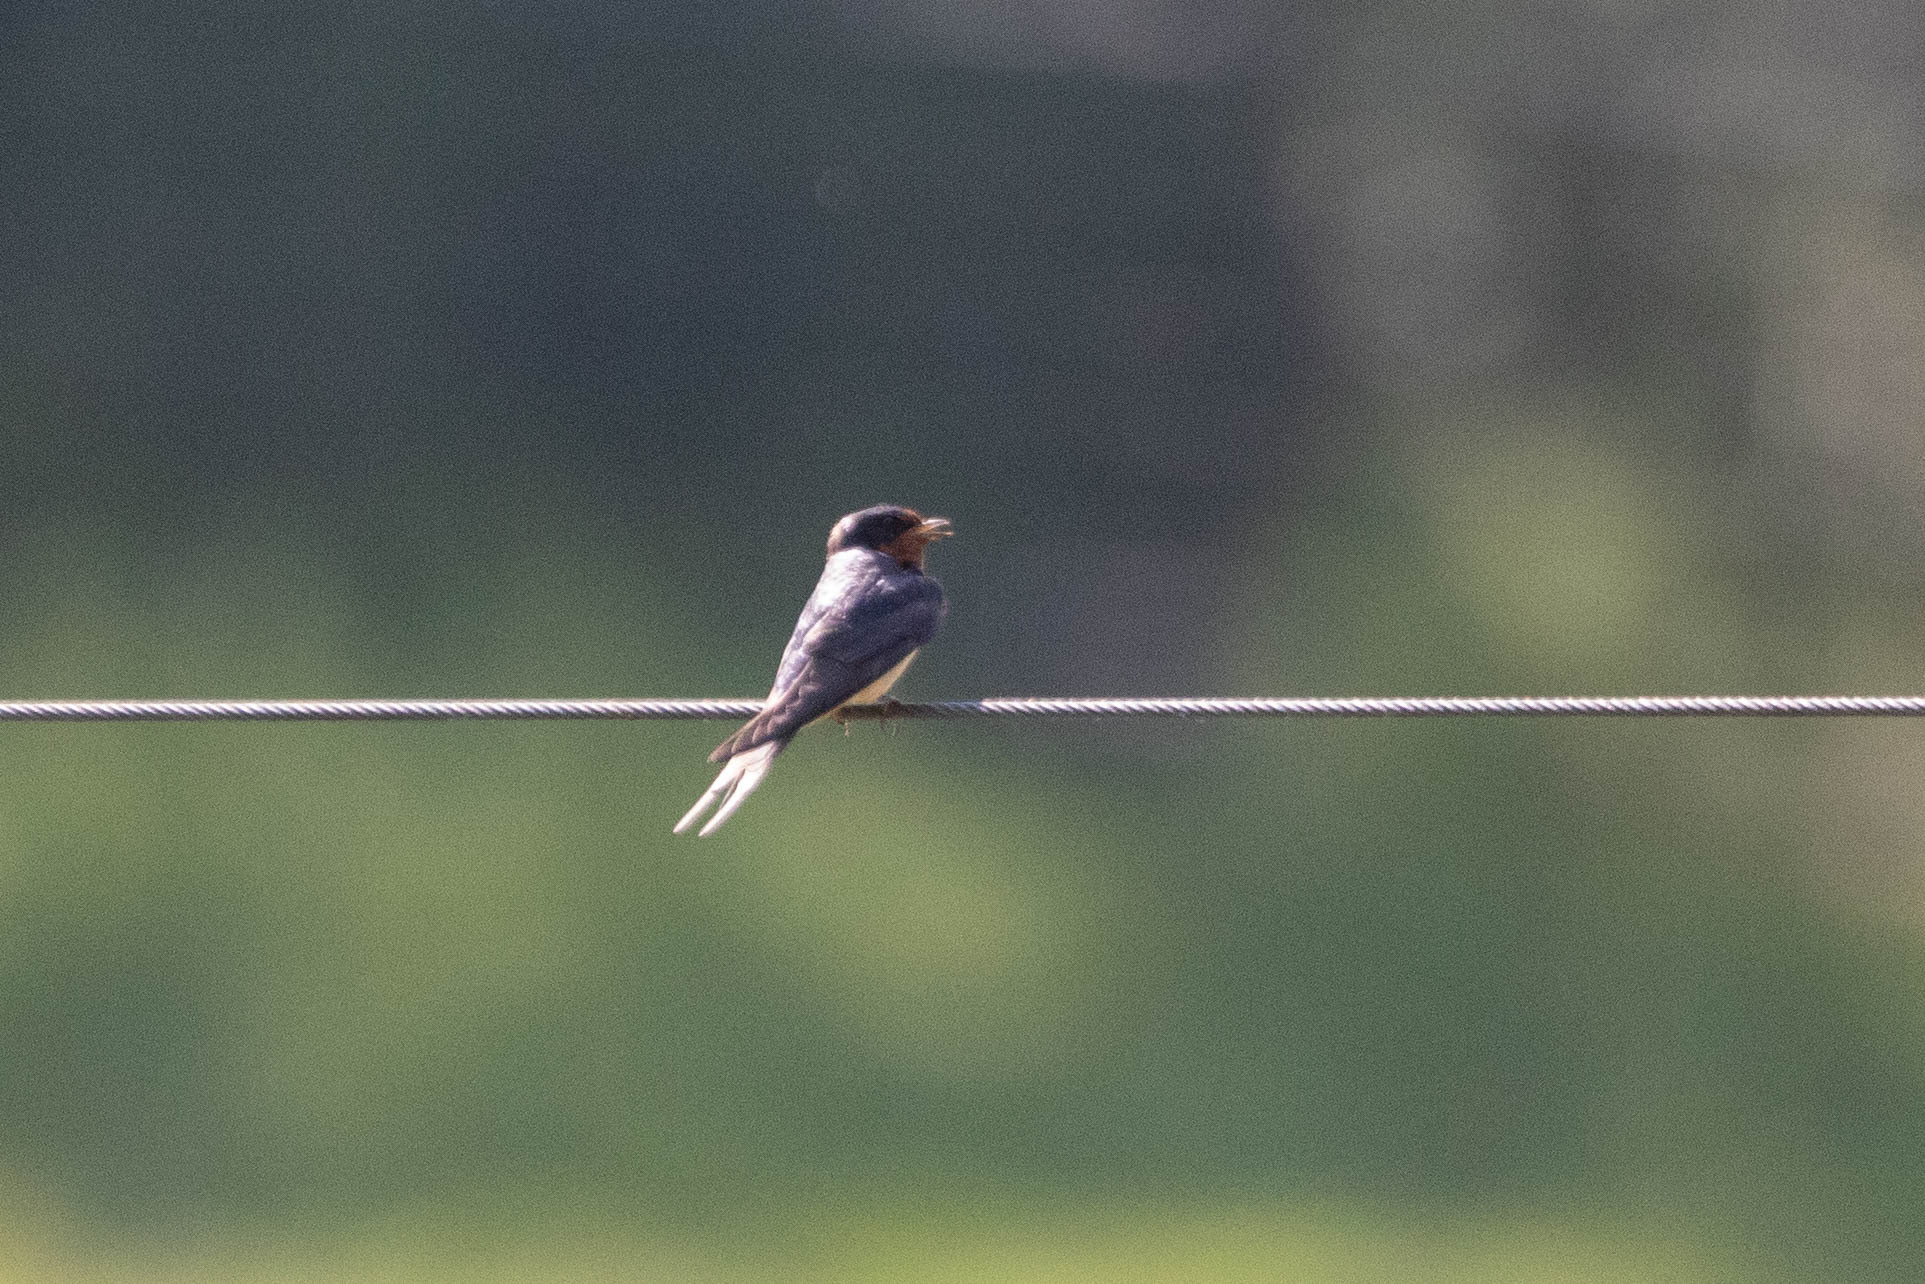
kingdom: Animalia
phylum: Chordata
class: Aves
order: Passeriformes
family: Hirundinidae
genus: Hirundo
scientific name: Hirundo rustica
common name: Barn swallow
